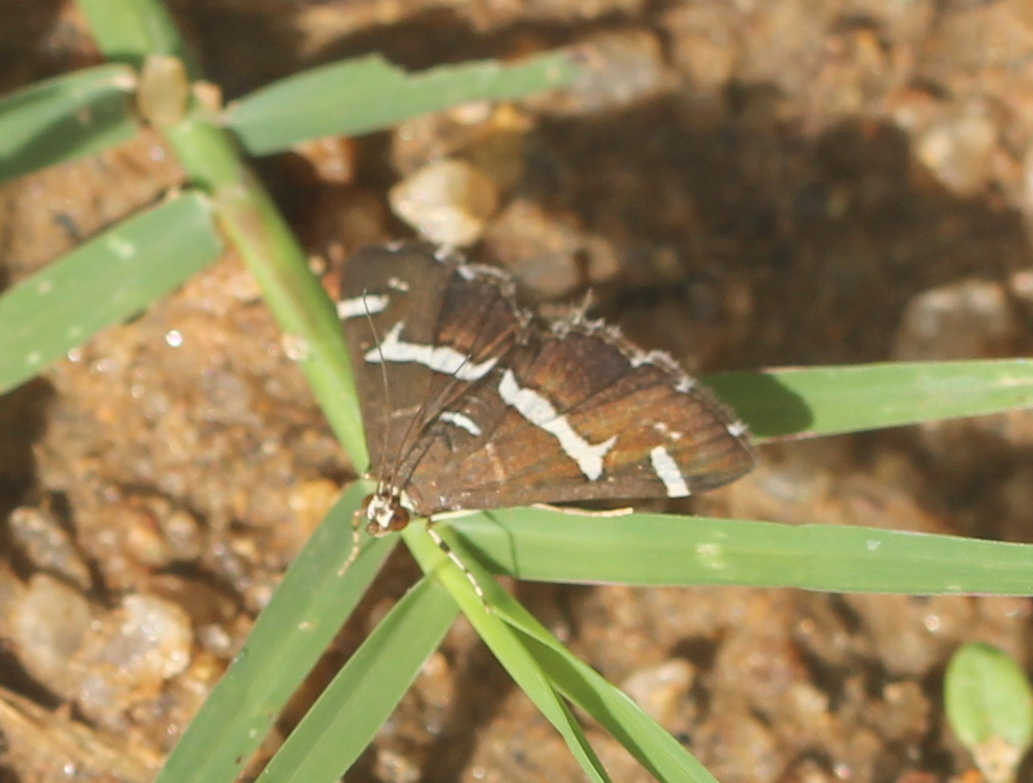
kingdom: Animalia
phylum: Arthropoda
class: Insecta
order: Lepidoptera
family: Crambidae
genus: Spoladea
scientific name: Spoladea recurvalis
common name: Beet webworm moth
